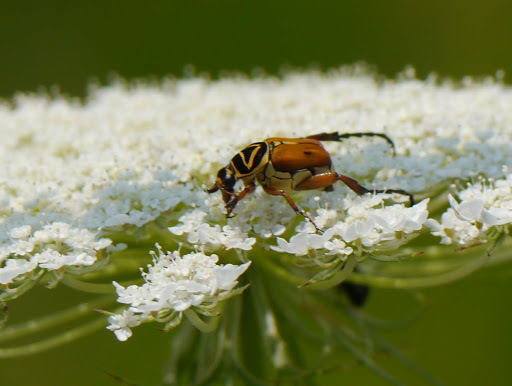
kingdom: Animalia
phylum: Arthropoda
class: Insecta
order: Coleoptera
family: Scarabaeidae
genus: Trigonopeltastes
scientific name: Trigonopeltastes delta
